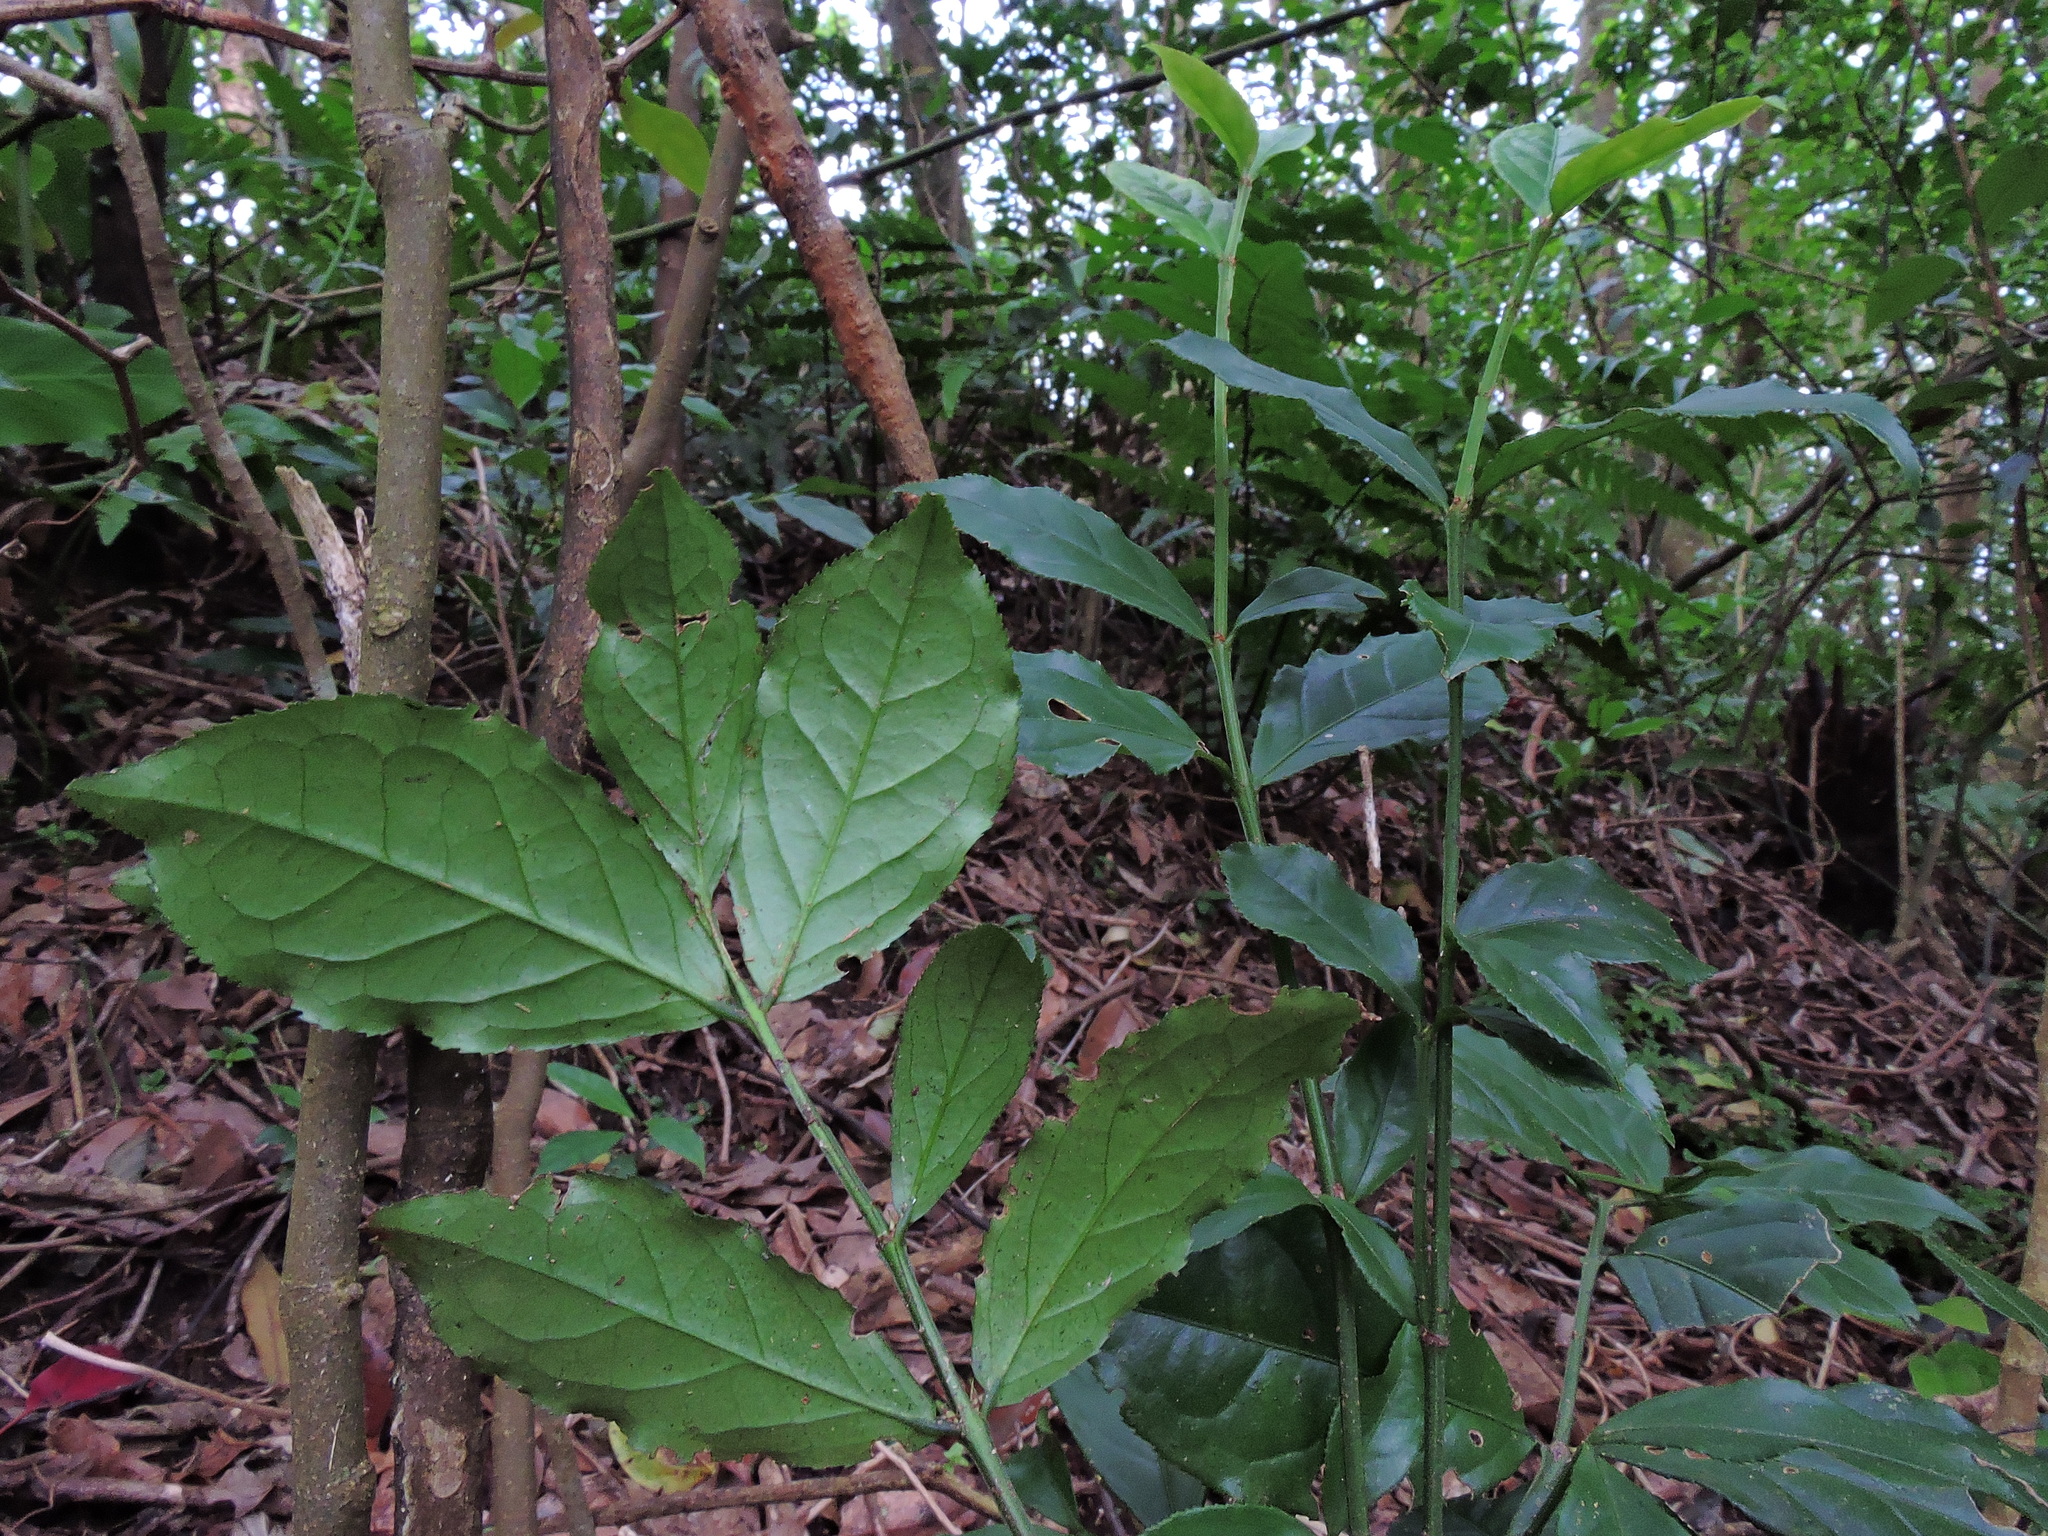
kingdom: Plantae
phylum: Tracheophyta
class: Magnoliopsida
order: Celastrales
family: Celastraceae
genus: Euonymus
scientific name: Euonymus centidens
